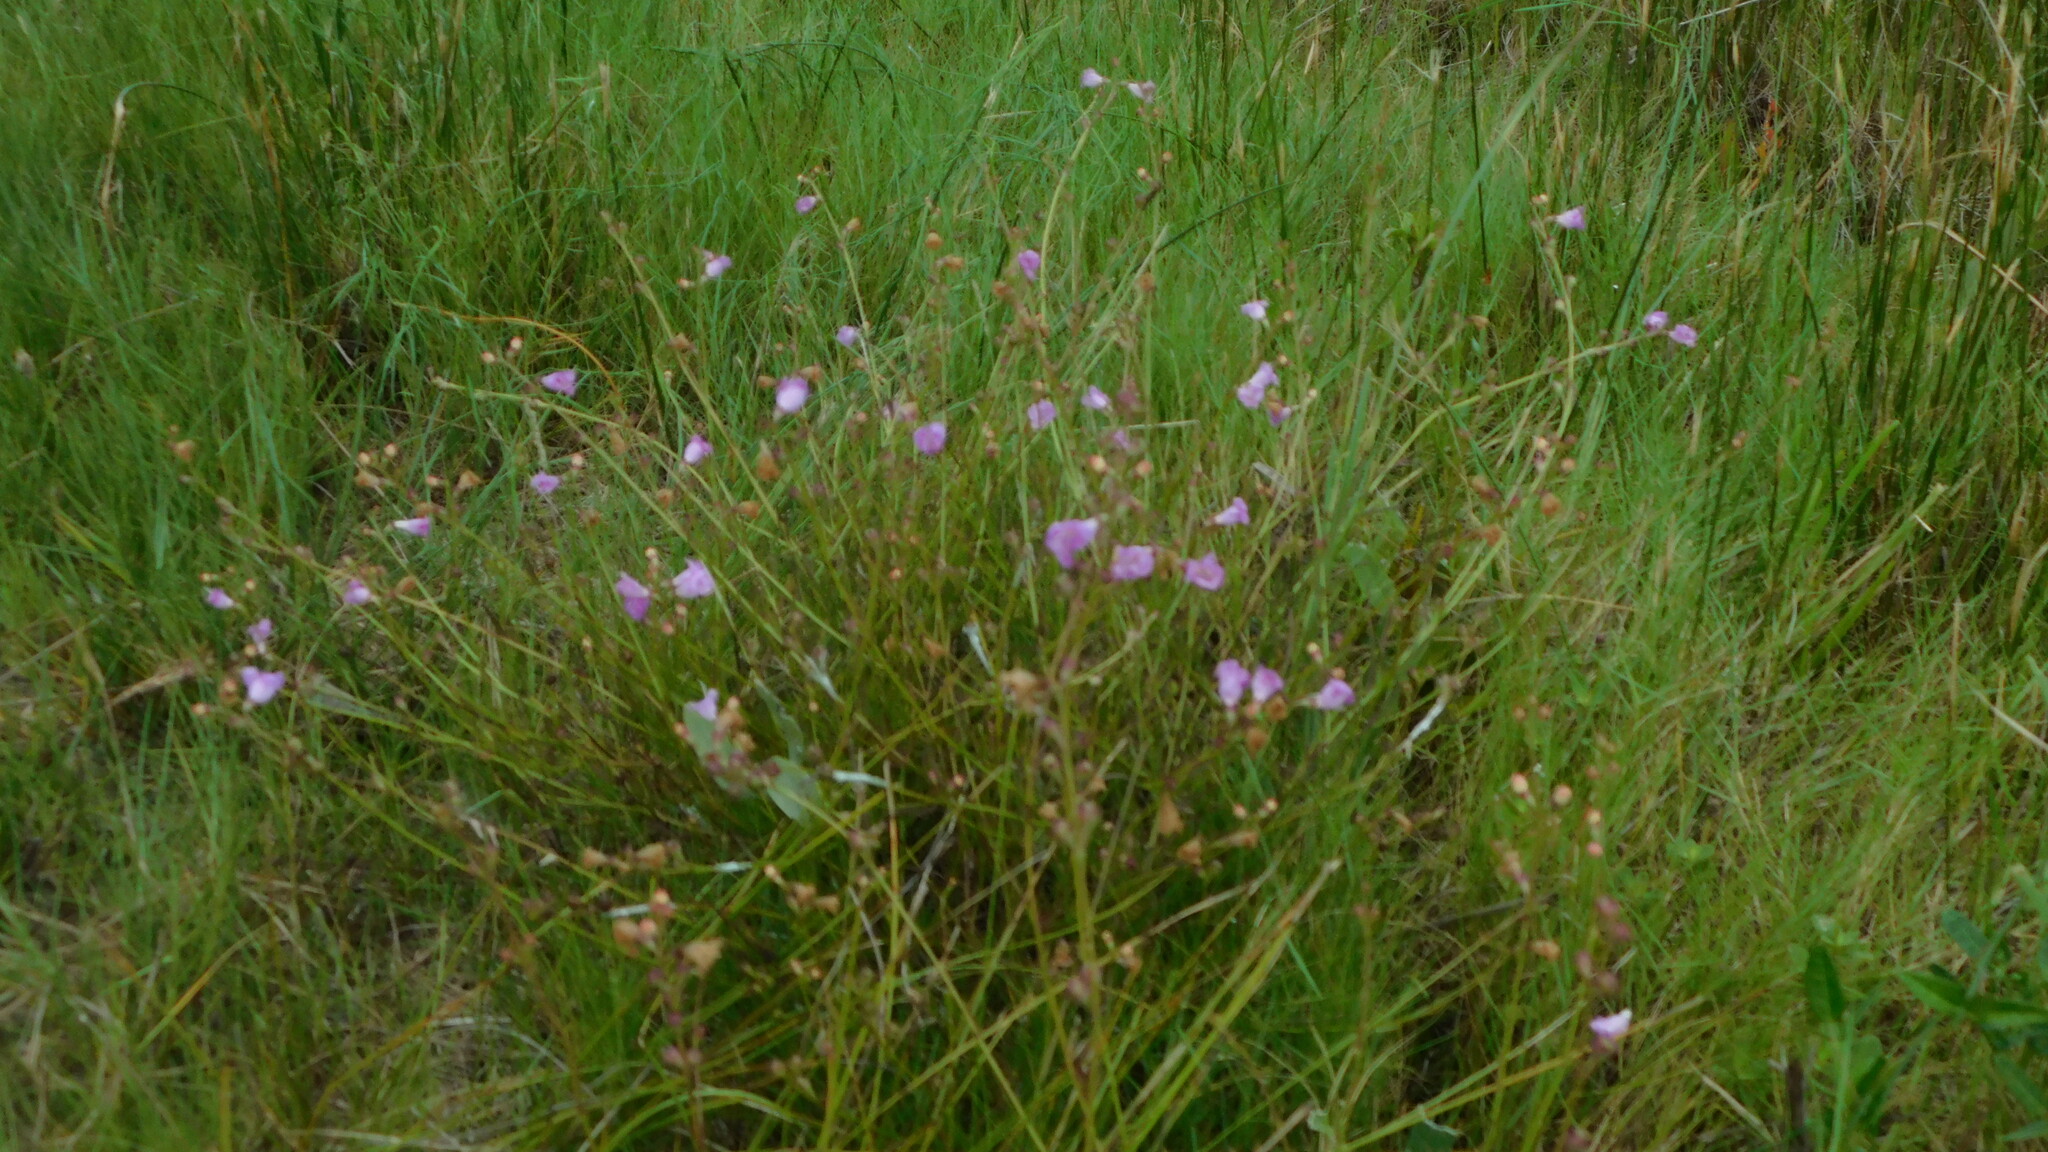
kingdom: Plantae
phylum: Tracheophyta
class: Magnoliopsida
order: Lamiales
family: Orobanchaceae
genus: Agalinis
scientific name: Agalinis maritima
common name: Saltmarsh agalinis
